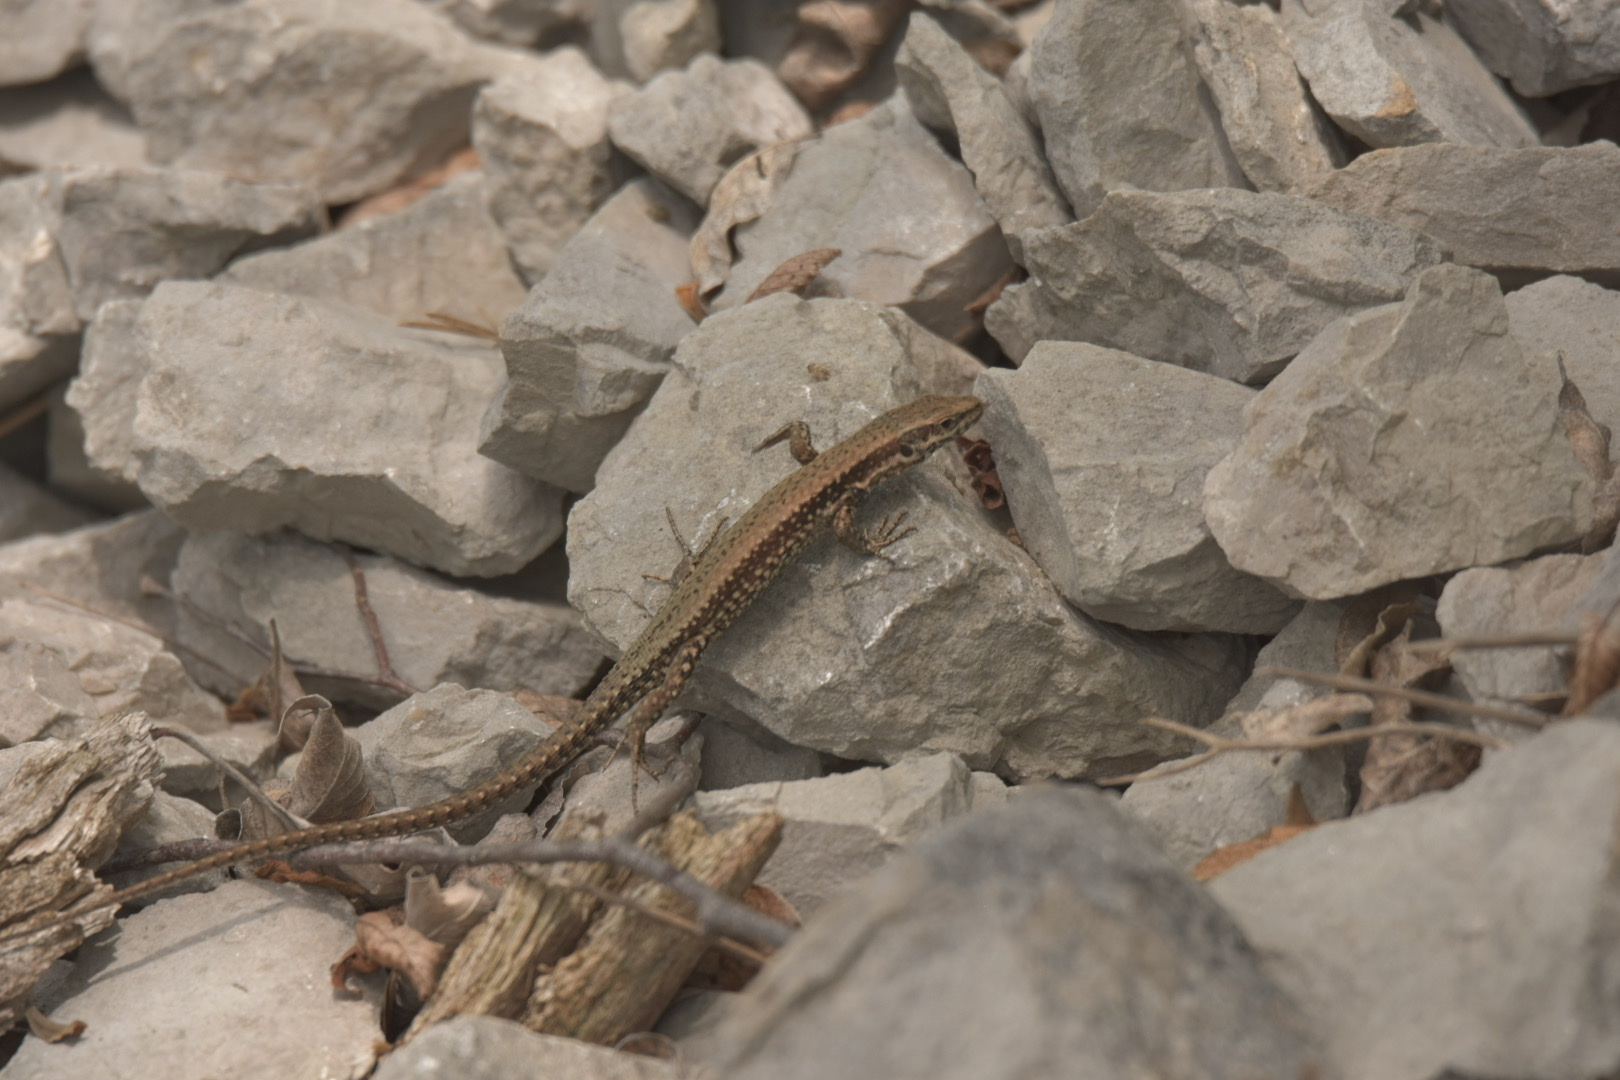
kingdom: Animalia
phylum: Chordata
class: Squamata
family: Lacertidae
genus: Podarcis
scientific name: Podarcis muralis
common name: Common wall lizard
